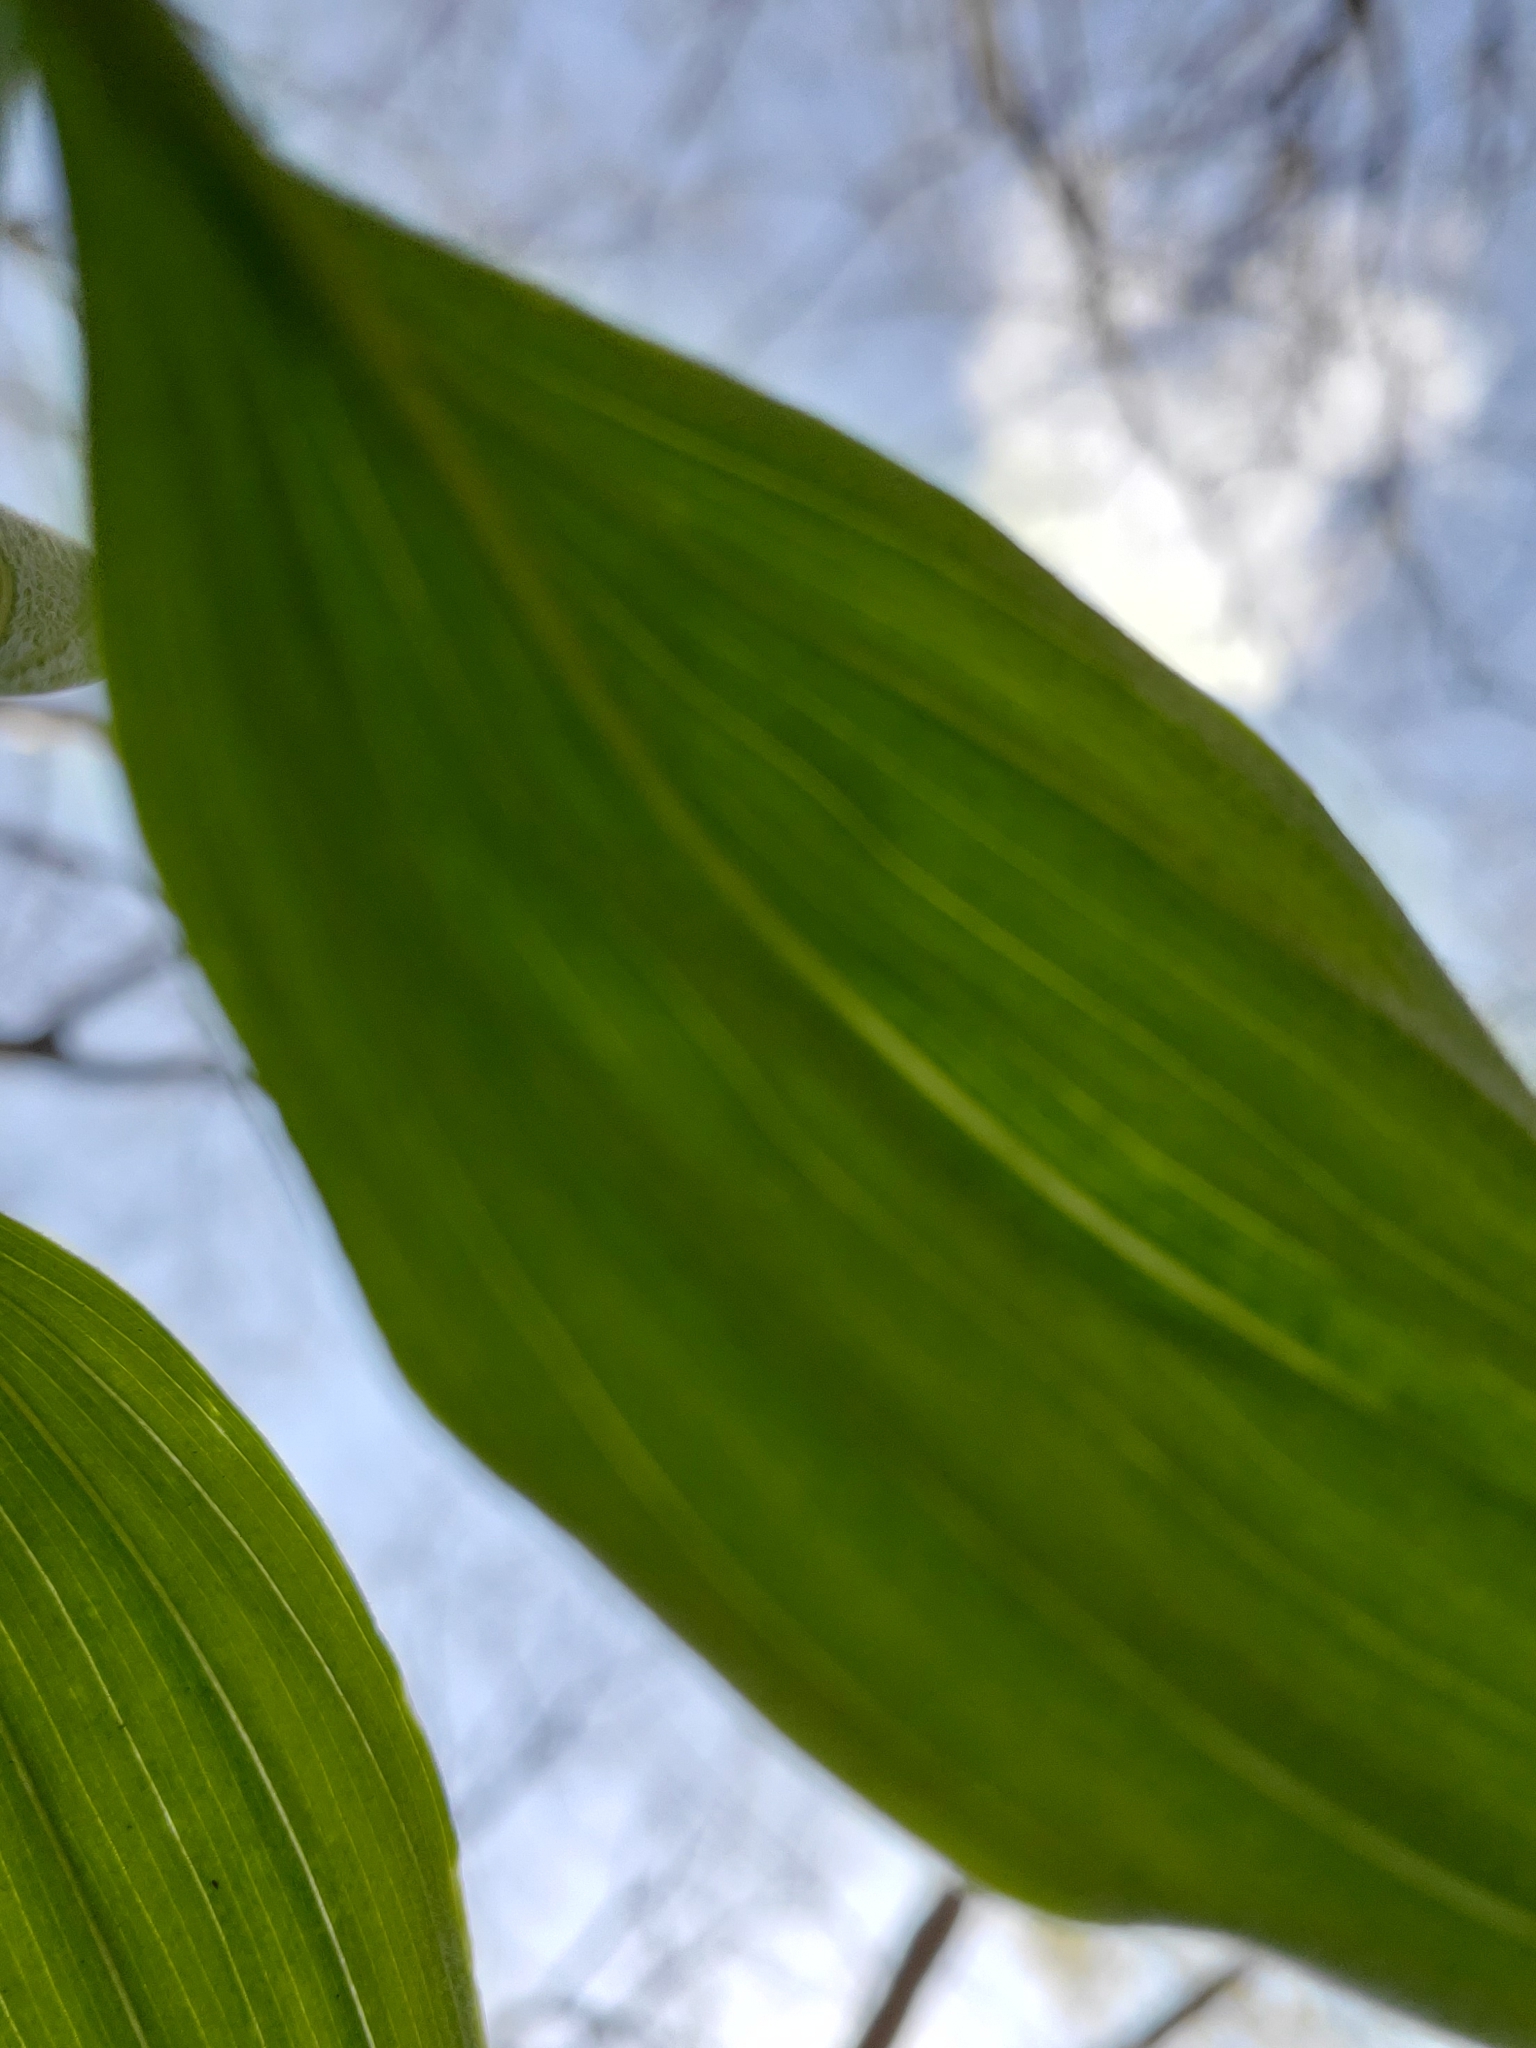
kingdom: Plantae
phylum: Tracheophyta
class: Liliopsida
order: Asparagales
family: Asparagaceae
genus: Polygonatum
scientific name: Polygonatum pubescens
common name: Downy solomon's seal
